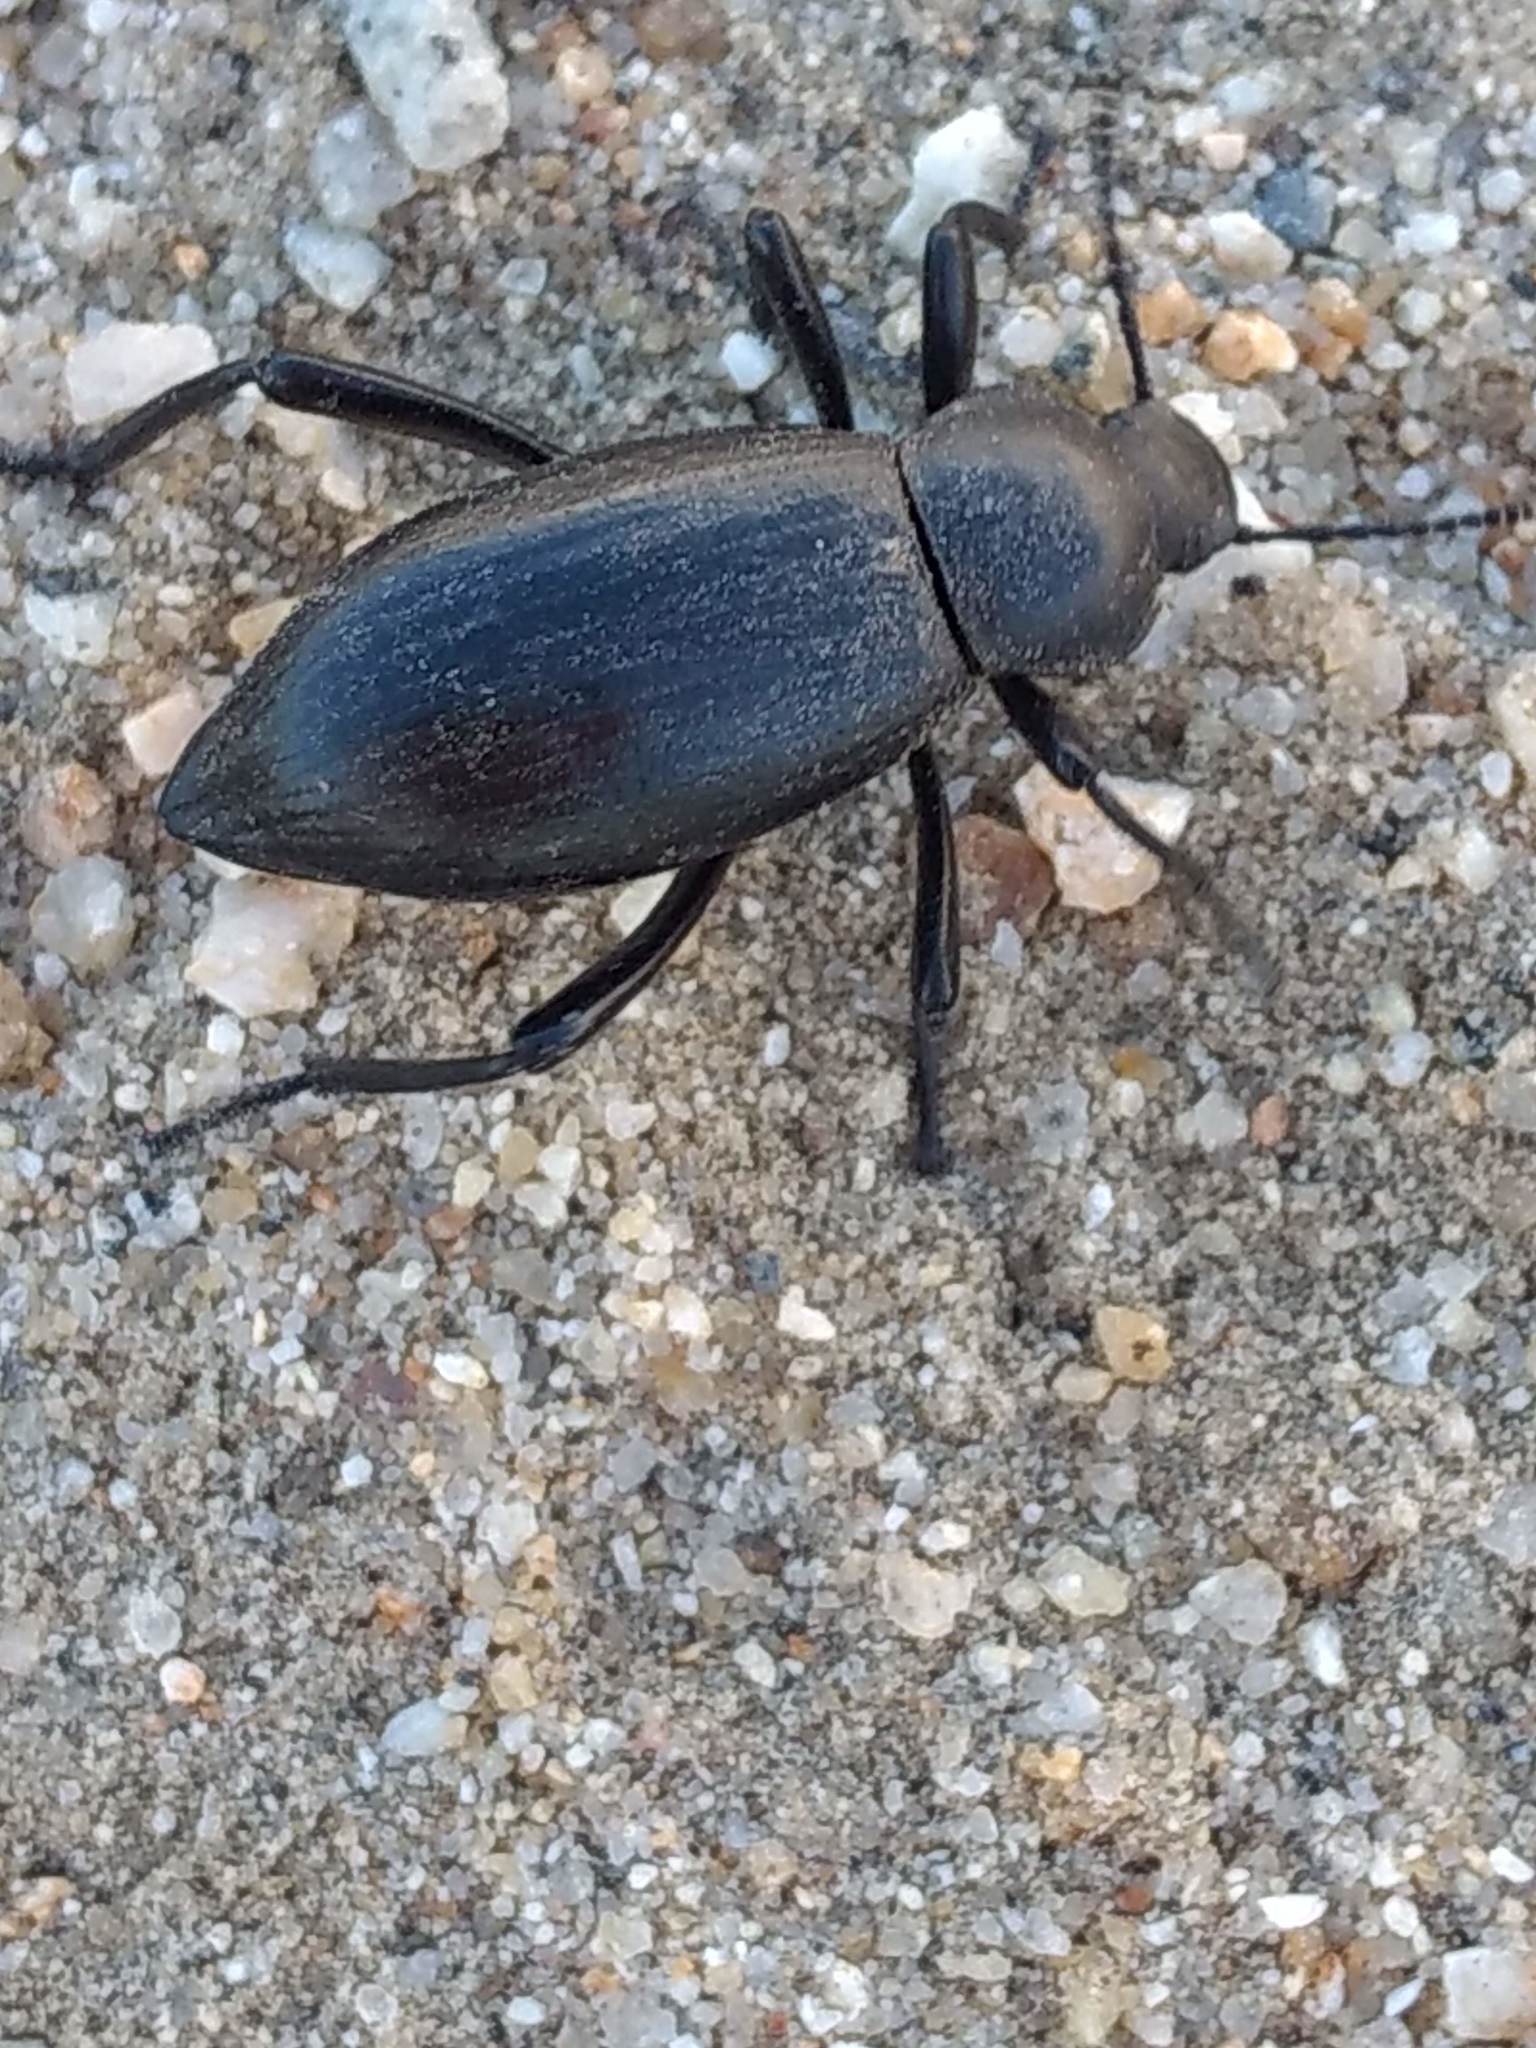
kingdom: Animalia
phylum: Arthropoda
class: Insecta
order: Coleoptera
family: Tenebrionidae
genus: Eleodes
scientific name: Eleodes gracilis
